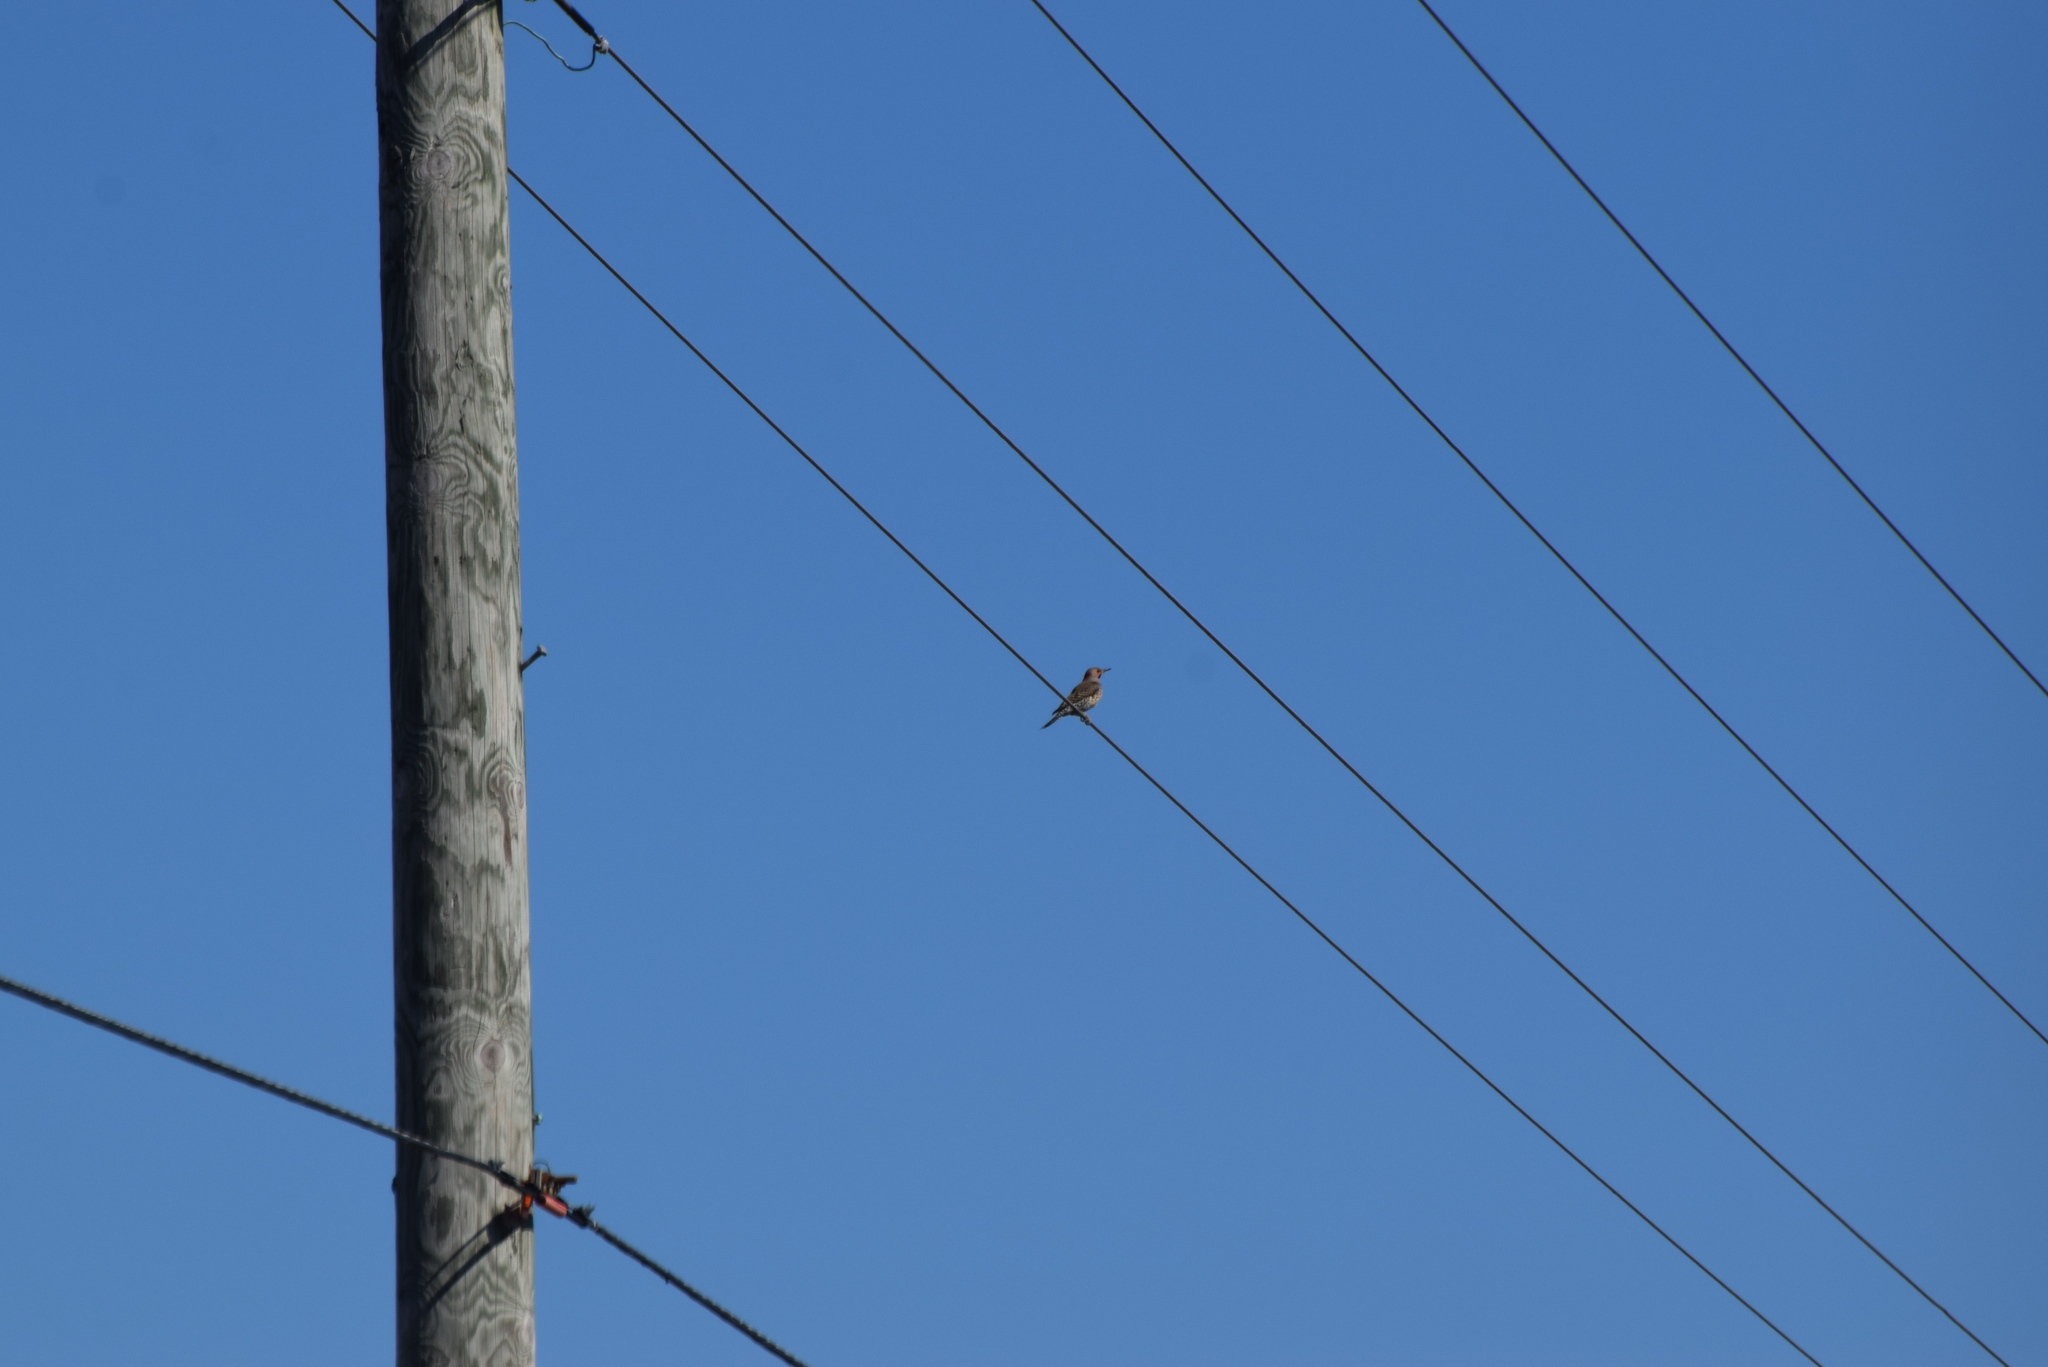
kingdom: Animalia
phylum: Chordata
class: Aves
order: Piciformes
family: Picidae
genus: Colaptes
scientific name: Colaptes auratus
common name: Northern flicker
